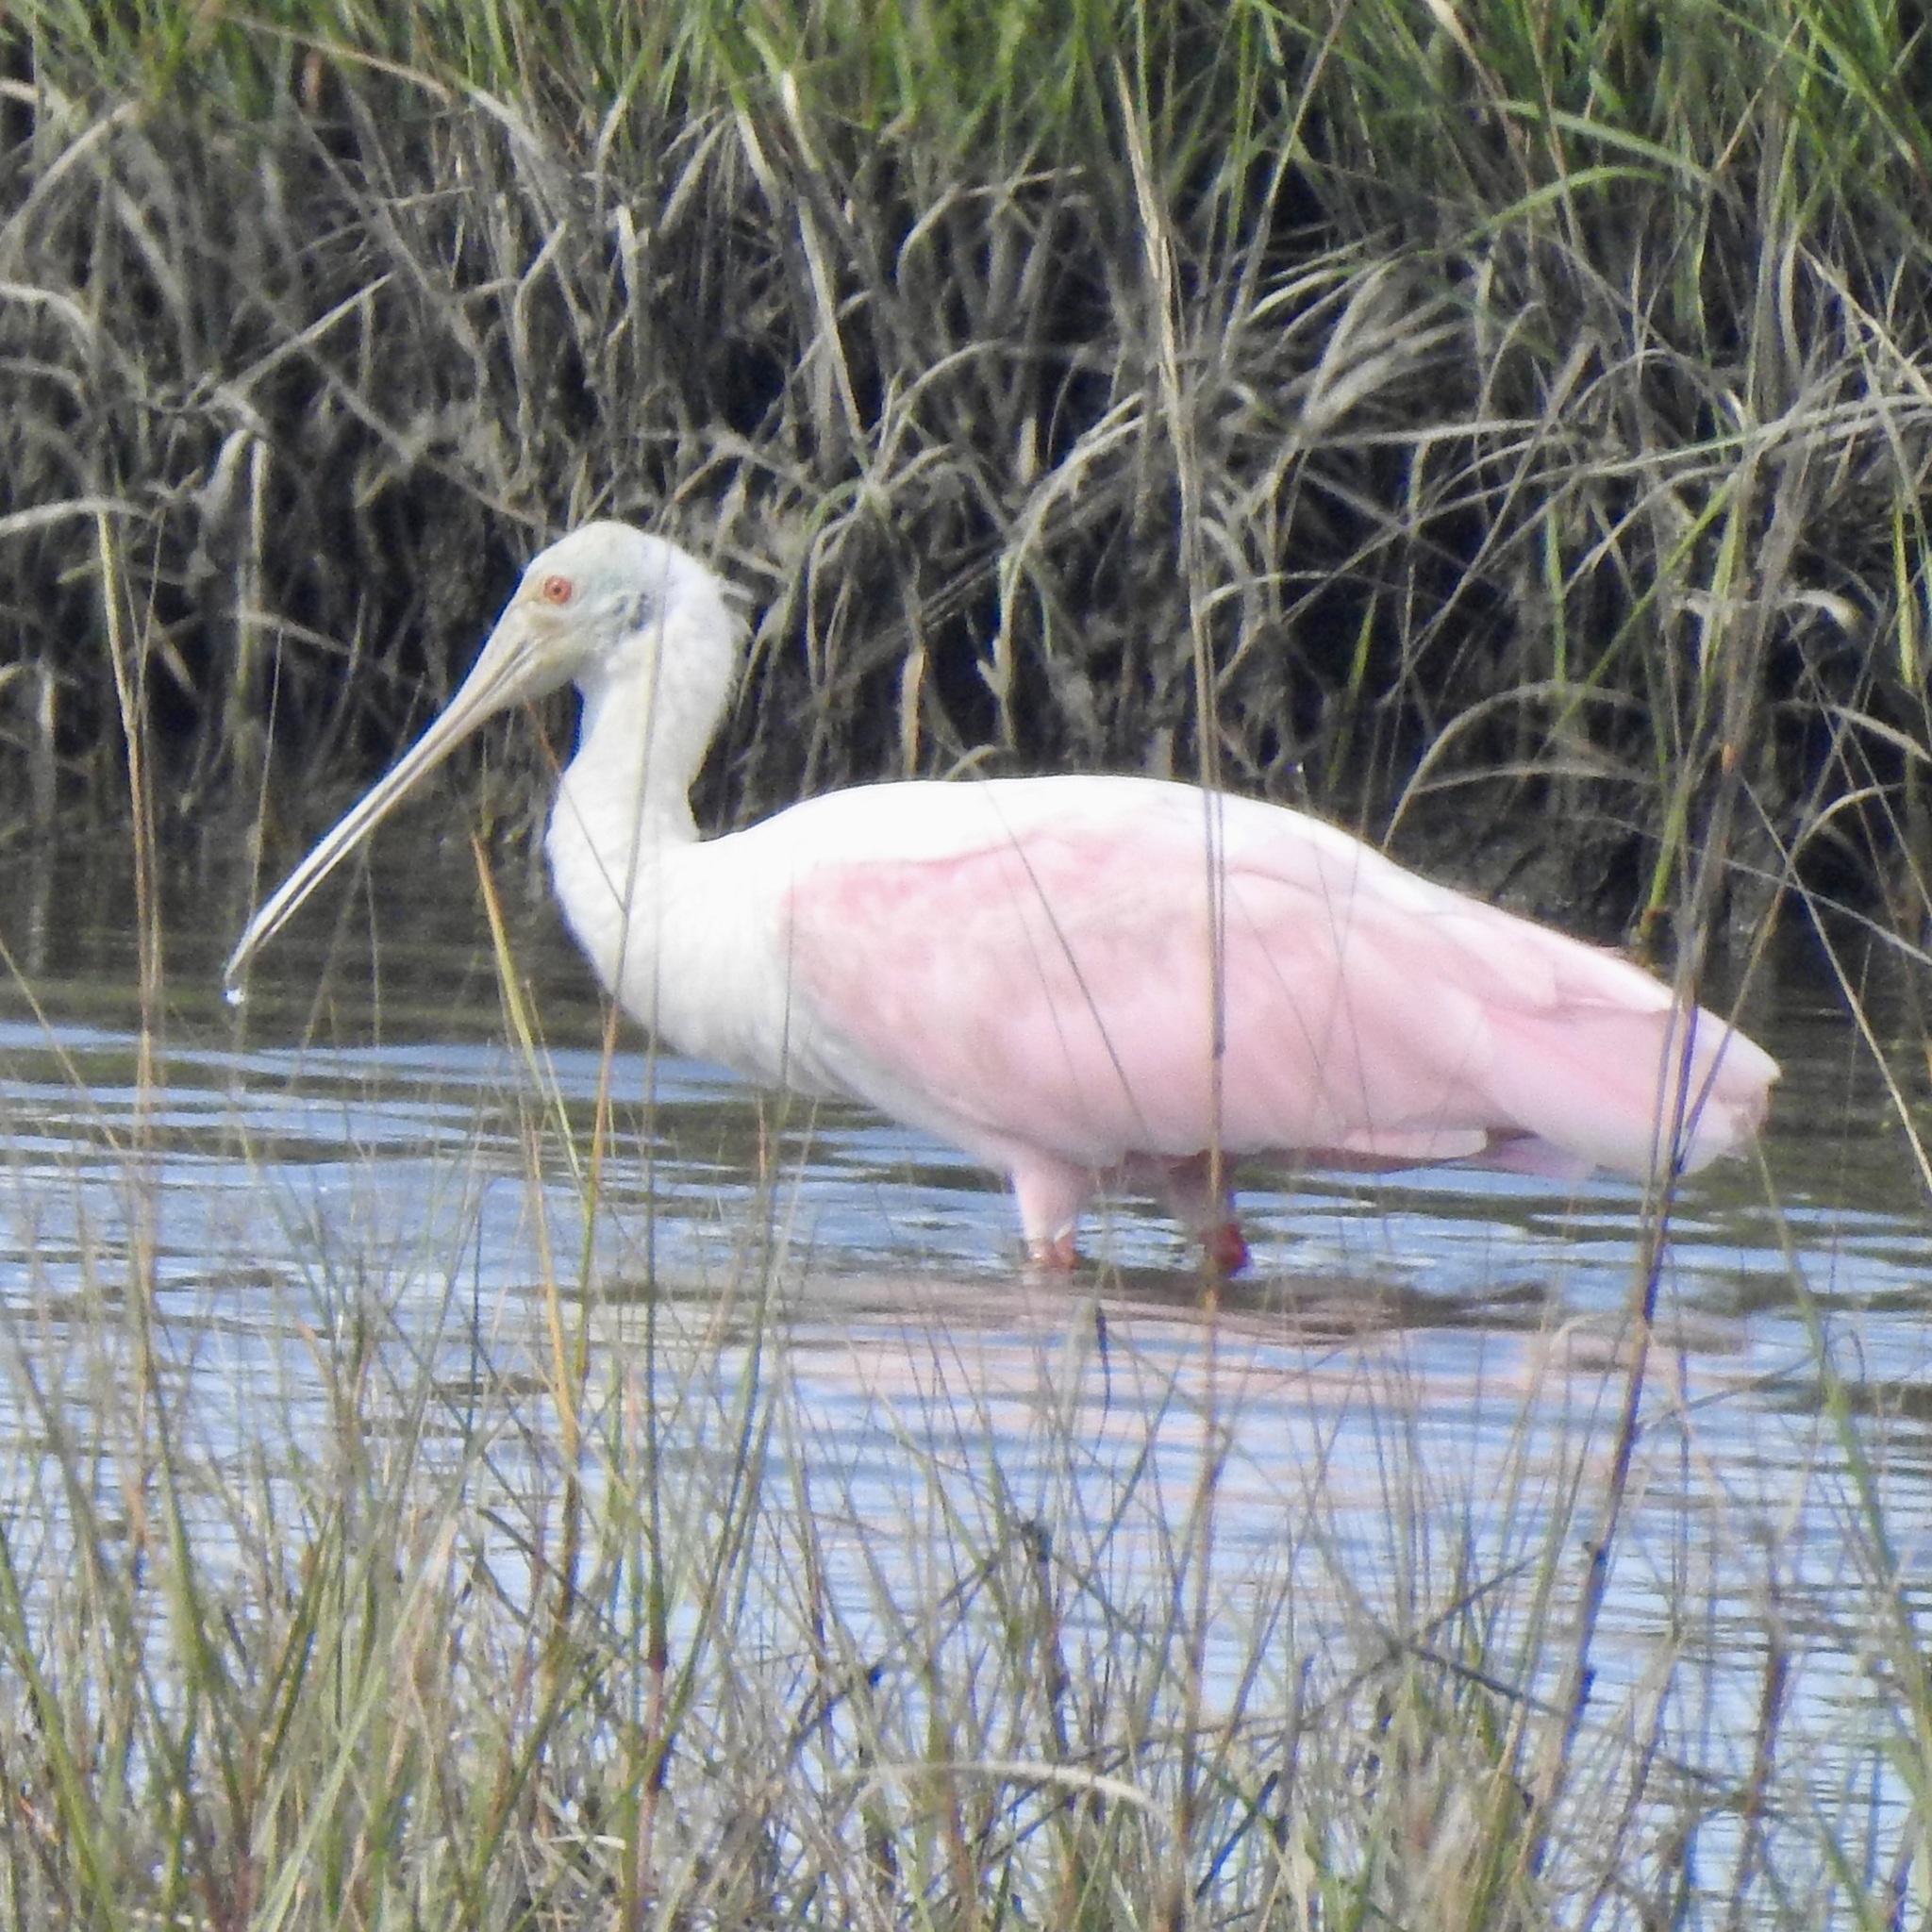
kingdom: Animalia
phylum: Chordata
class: Aves
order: Pelecaniformes
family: Threskiornithidae
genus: Platalea
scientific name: Platalea ajaja
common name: Roseate spoonbill
